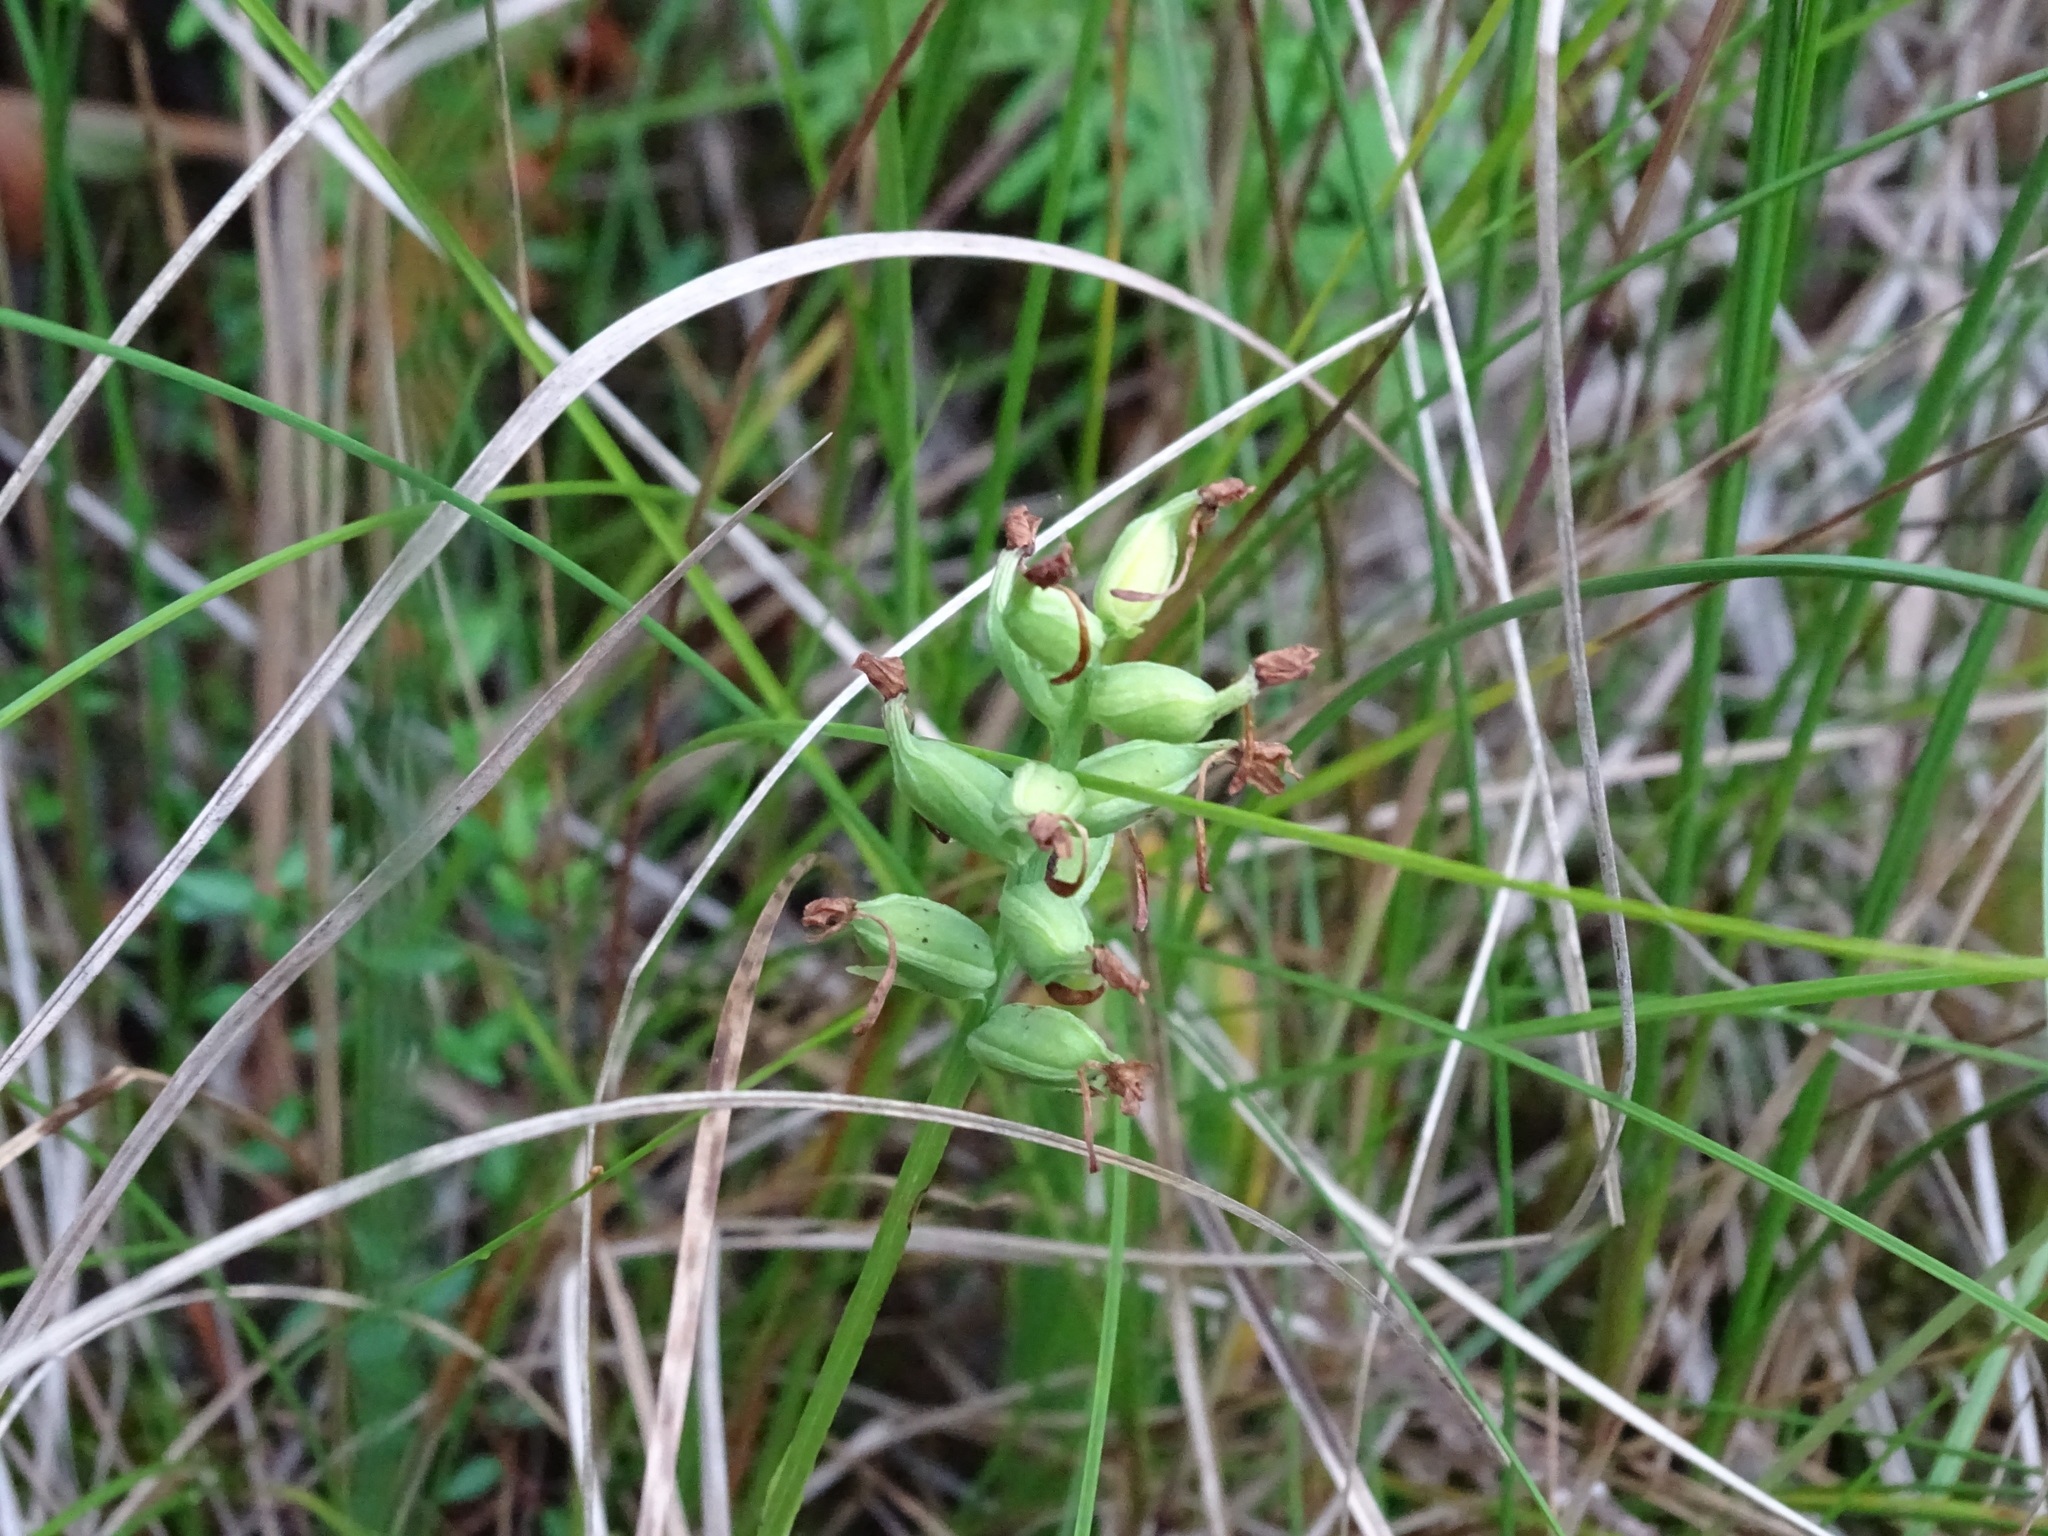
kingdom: Plantae
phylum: Tracheophyta
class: Liliopsida
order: Asparagales
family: Orchidaceae
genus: Platanthera
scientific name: Platanthera clavellata
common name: Club-spur orchid
